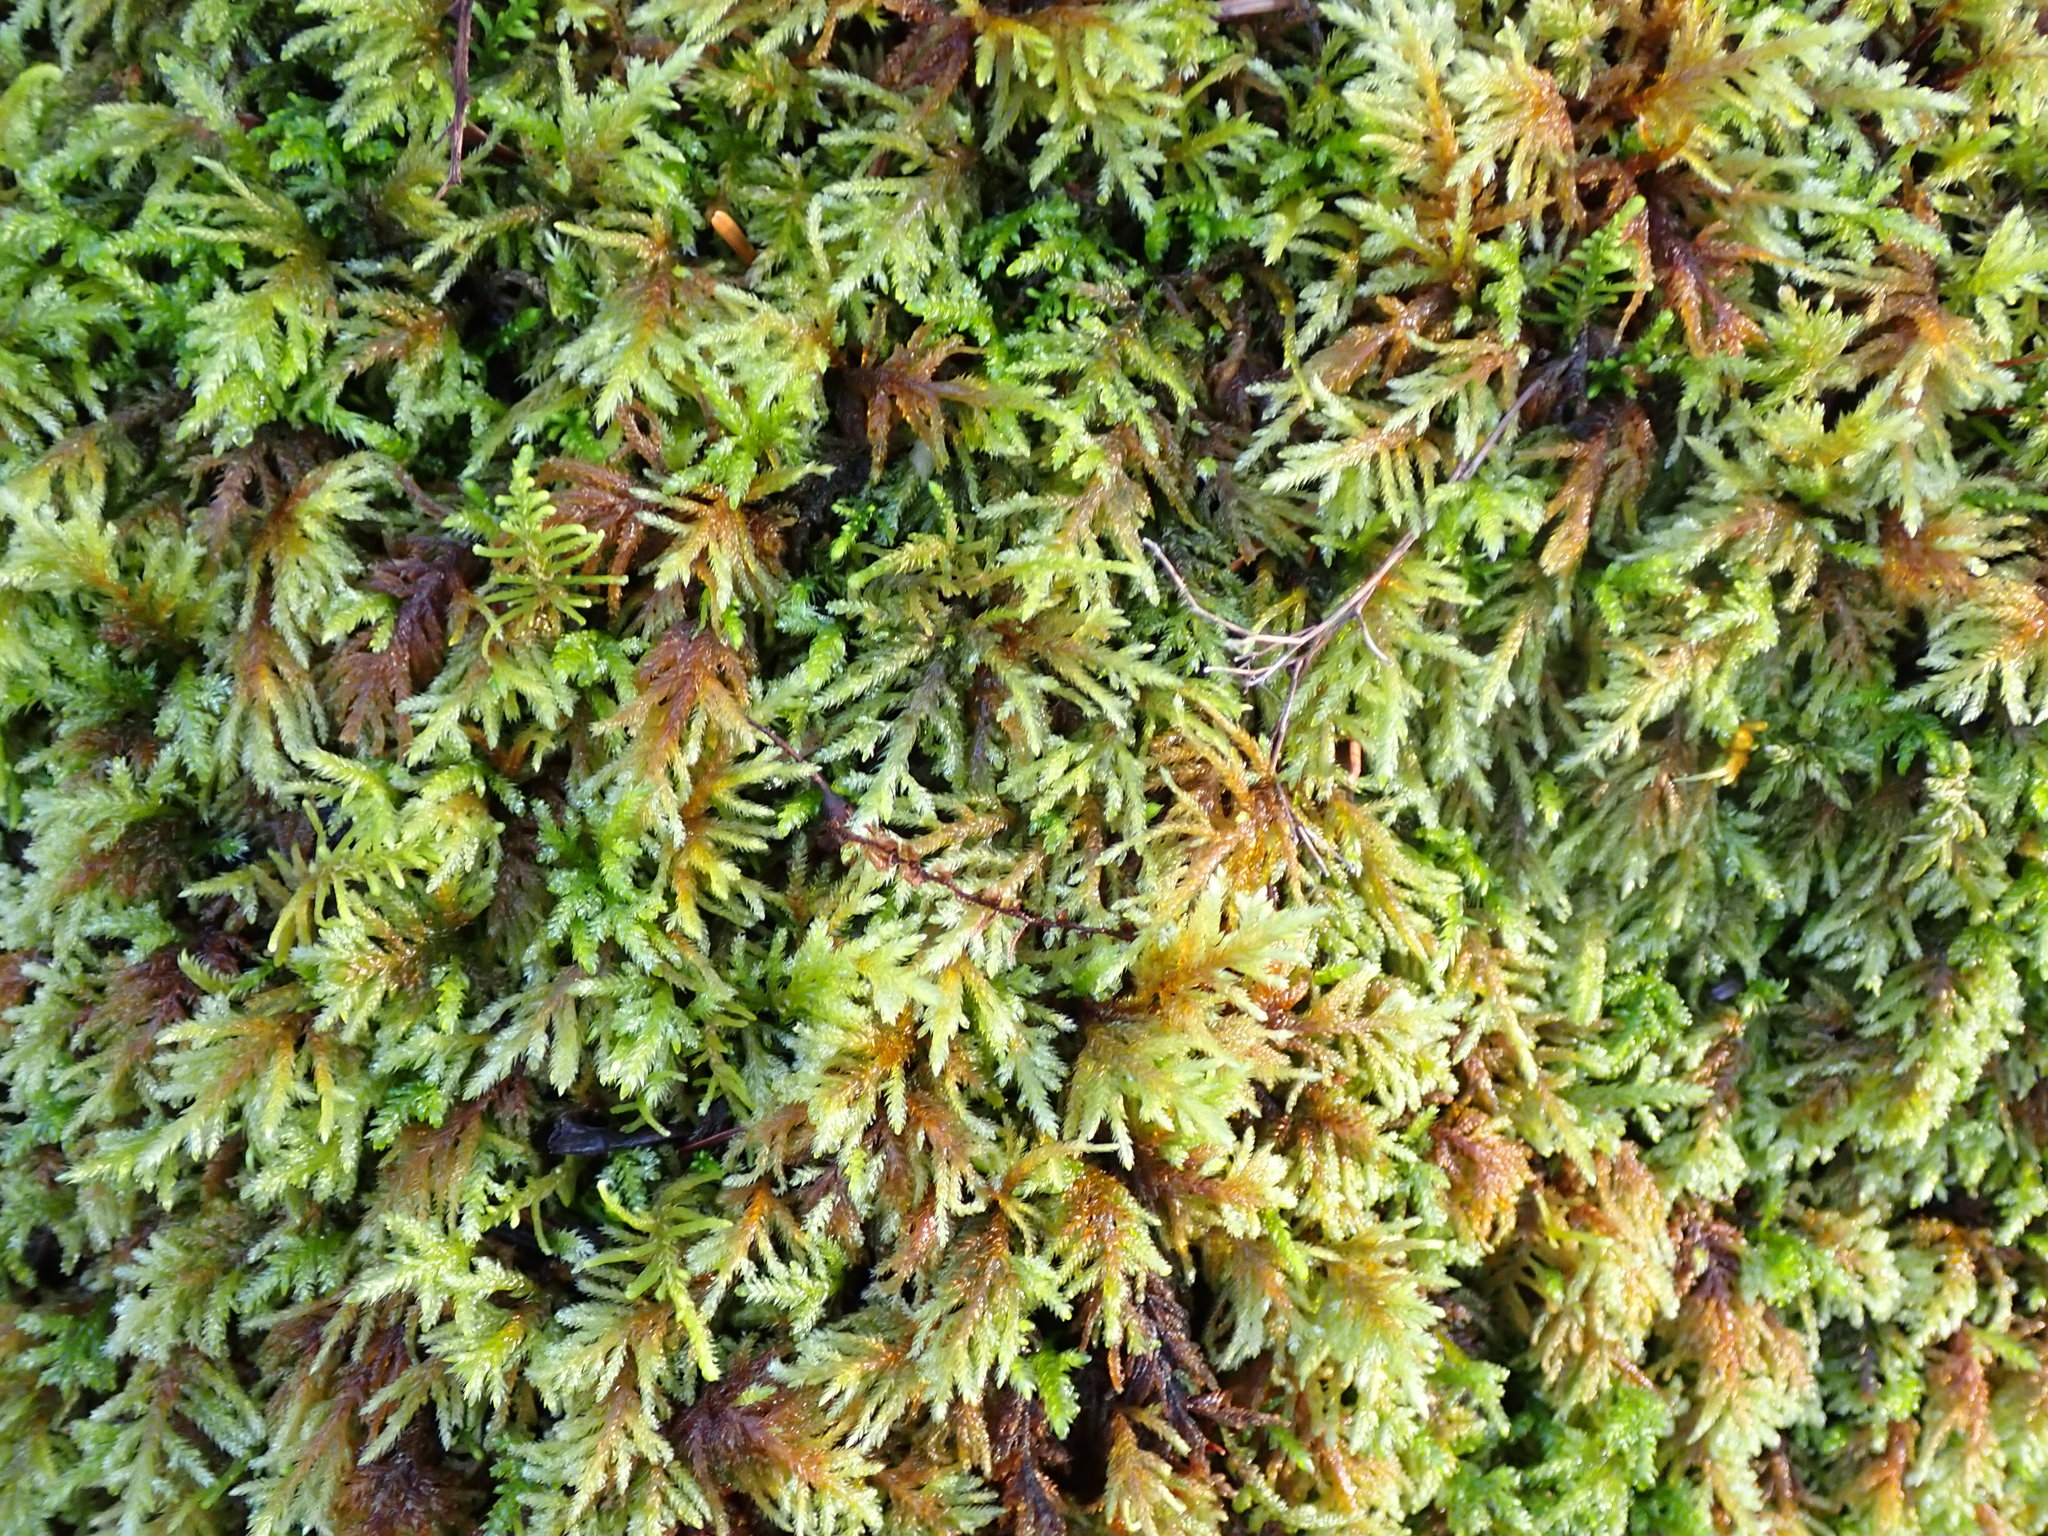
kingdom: Plantae
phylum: Bryophyta
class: Bryopsida
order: Hypnales
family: Lembophyllaceae
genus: Pseudisothecium
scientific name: Pseudisothecium stoloniferum
